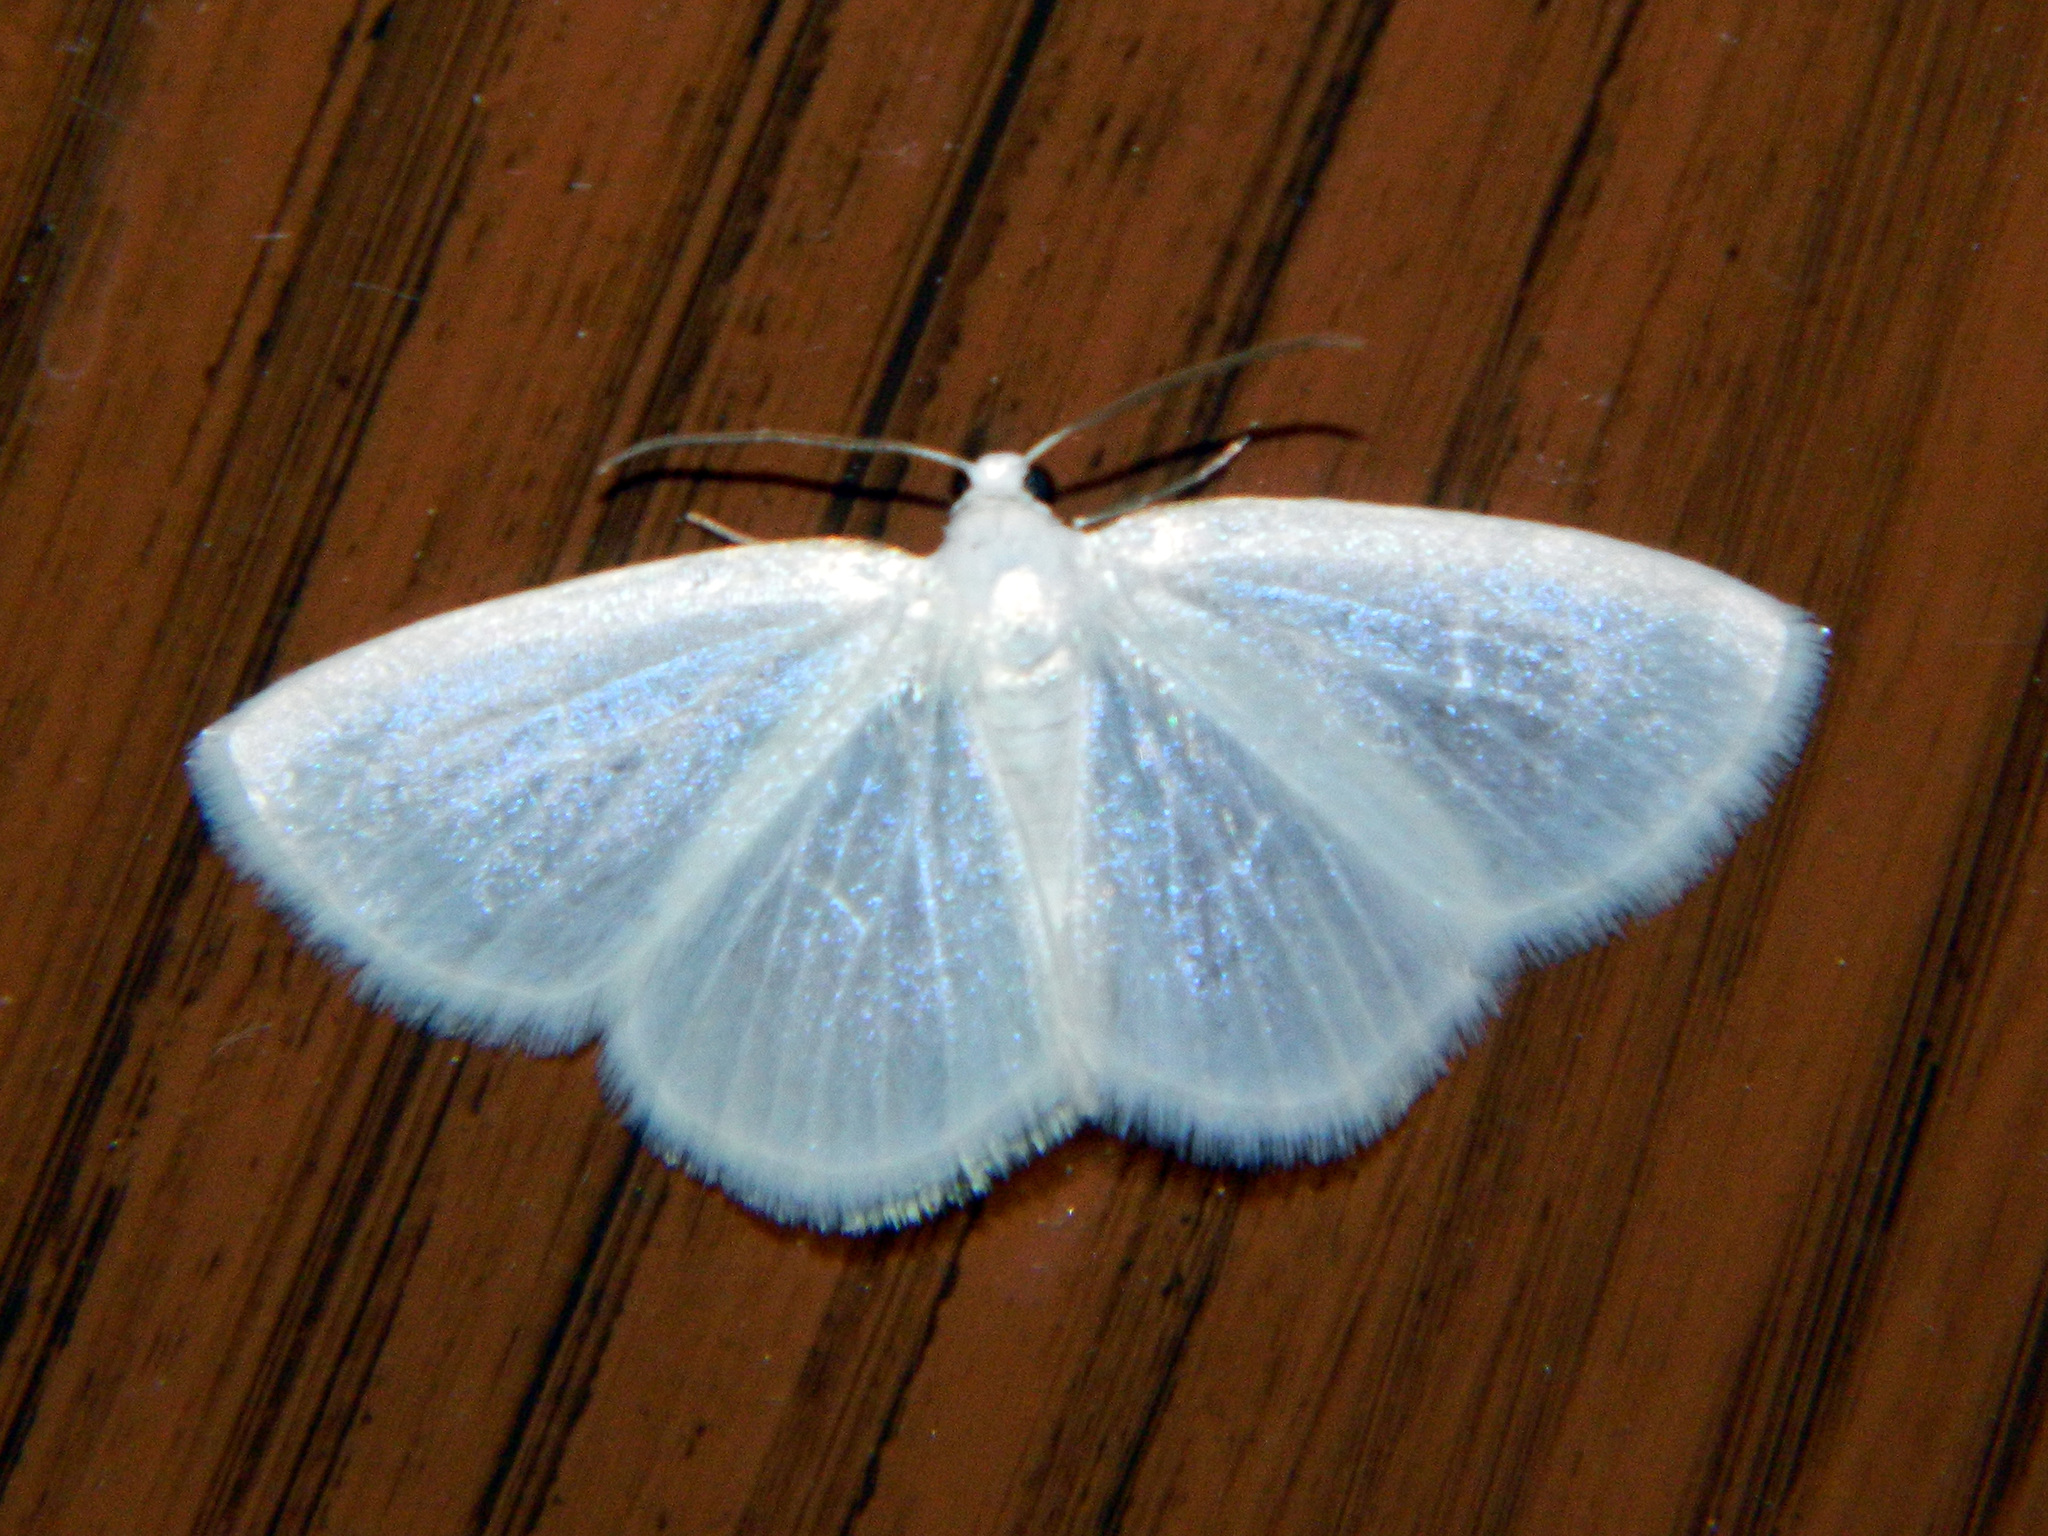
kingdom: Animalia
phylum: Arthropoda
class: Insecta
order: Lepidoptera
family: Geometridae
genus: Lomographa
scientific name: Lomographa vestaliata
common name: White spring moth
